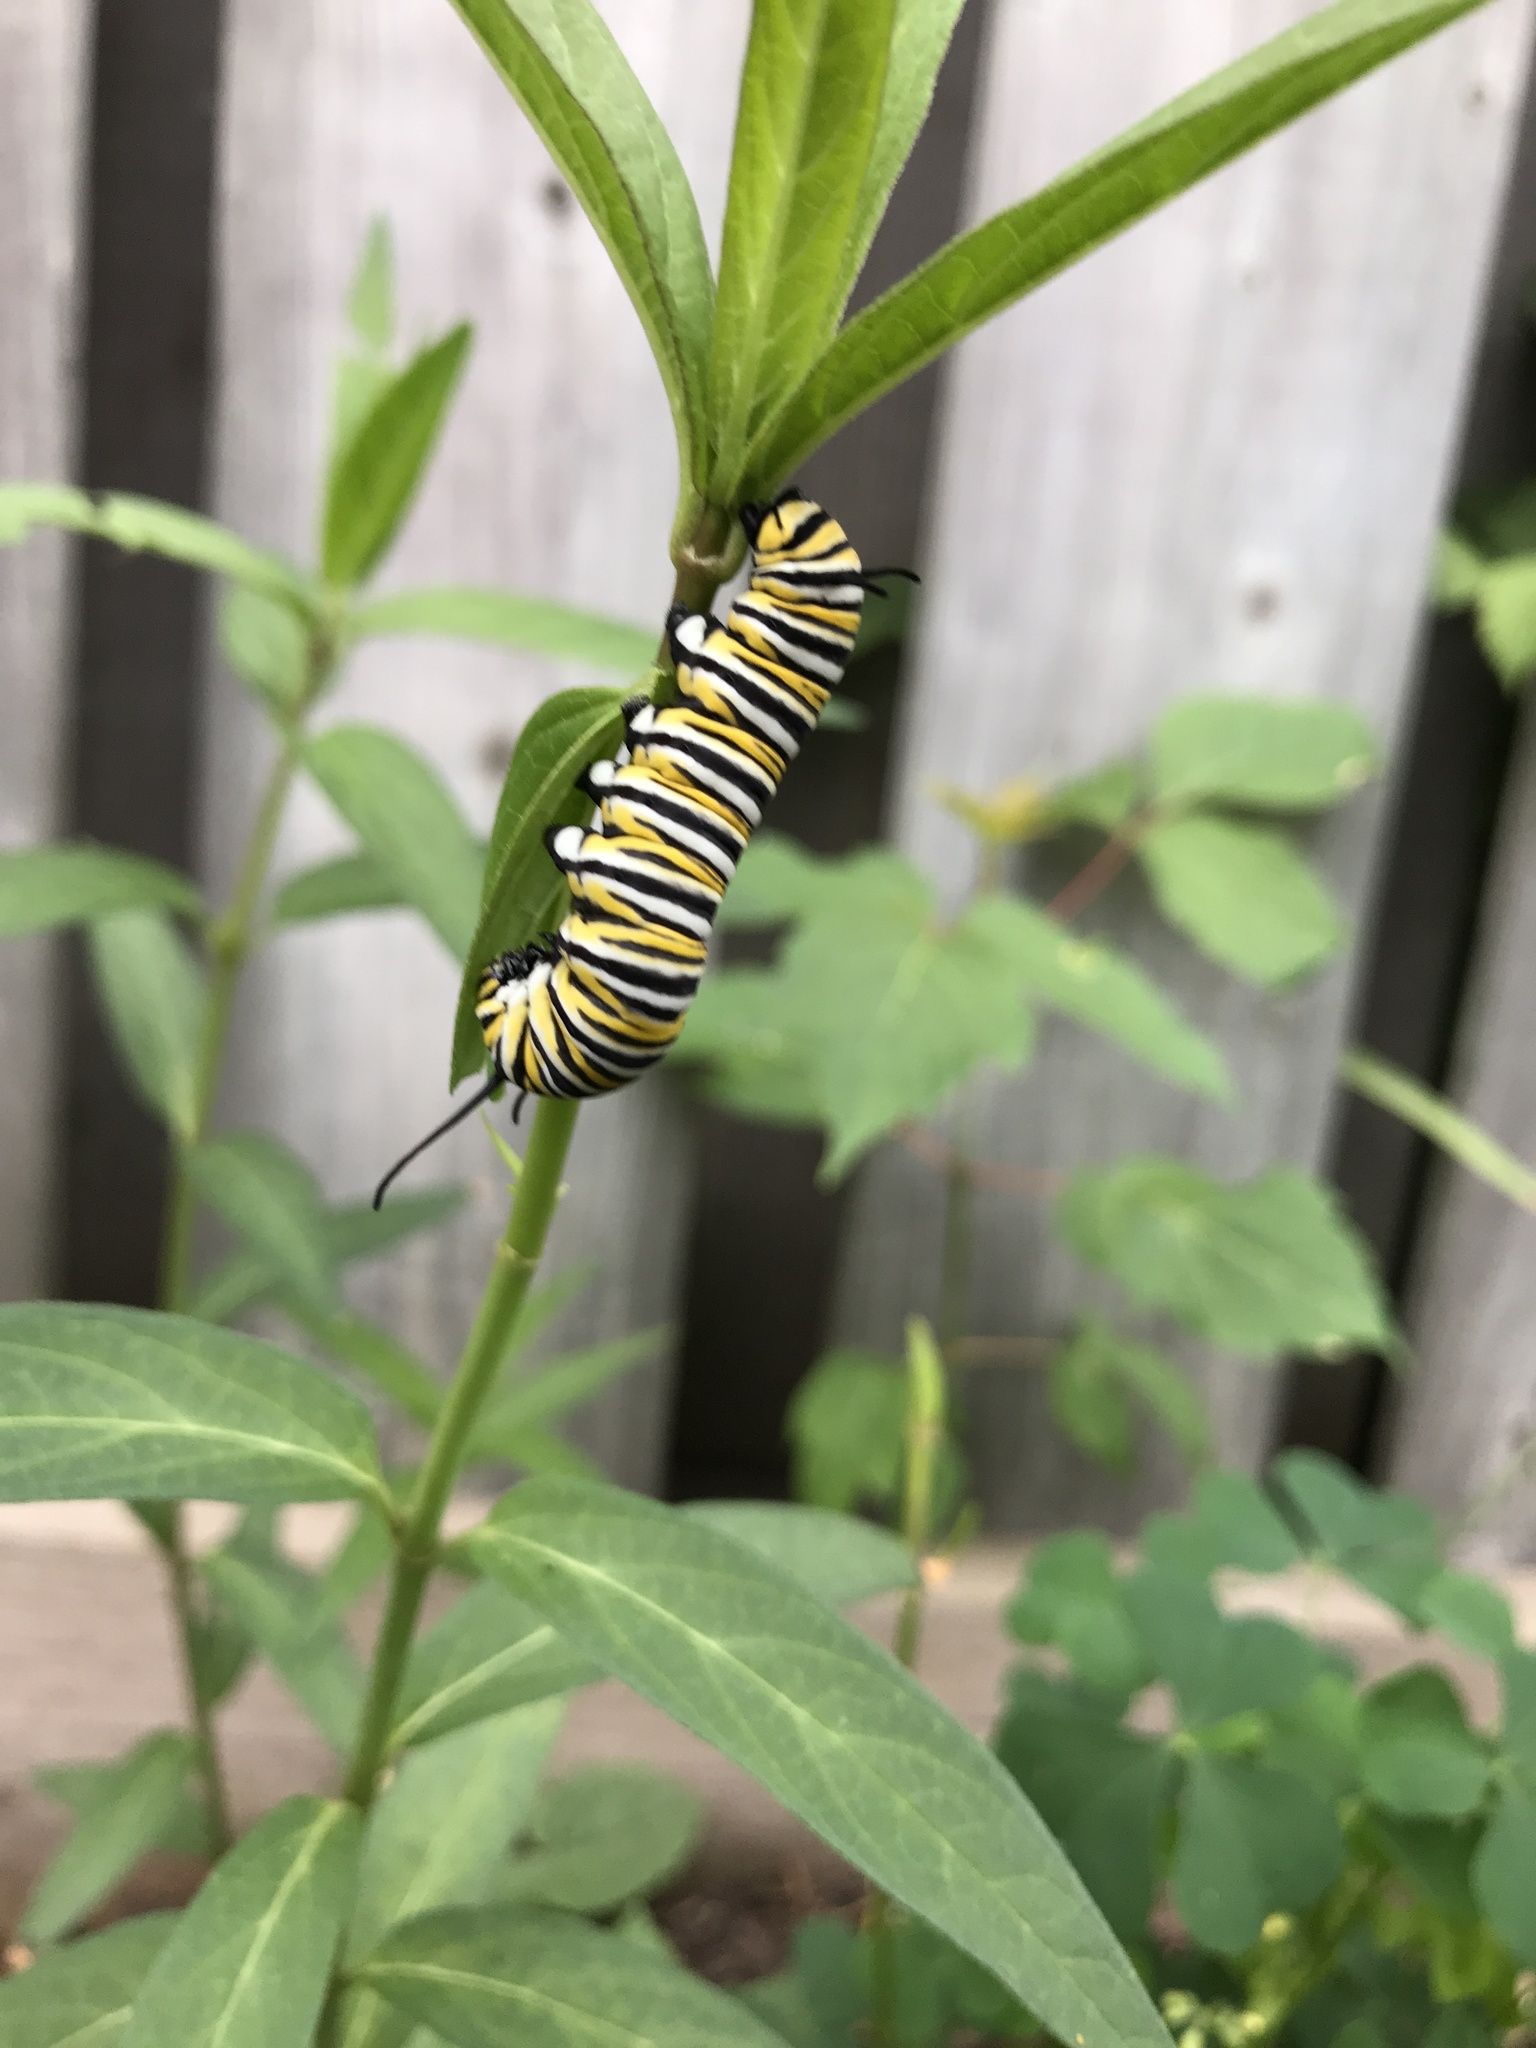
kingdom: Animalia
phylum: Arthropoda
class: Insecta
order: Lepidoptera
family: Nymphalidae
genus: Danaus
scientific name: Danaus plexippus
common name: Monarch
